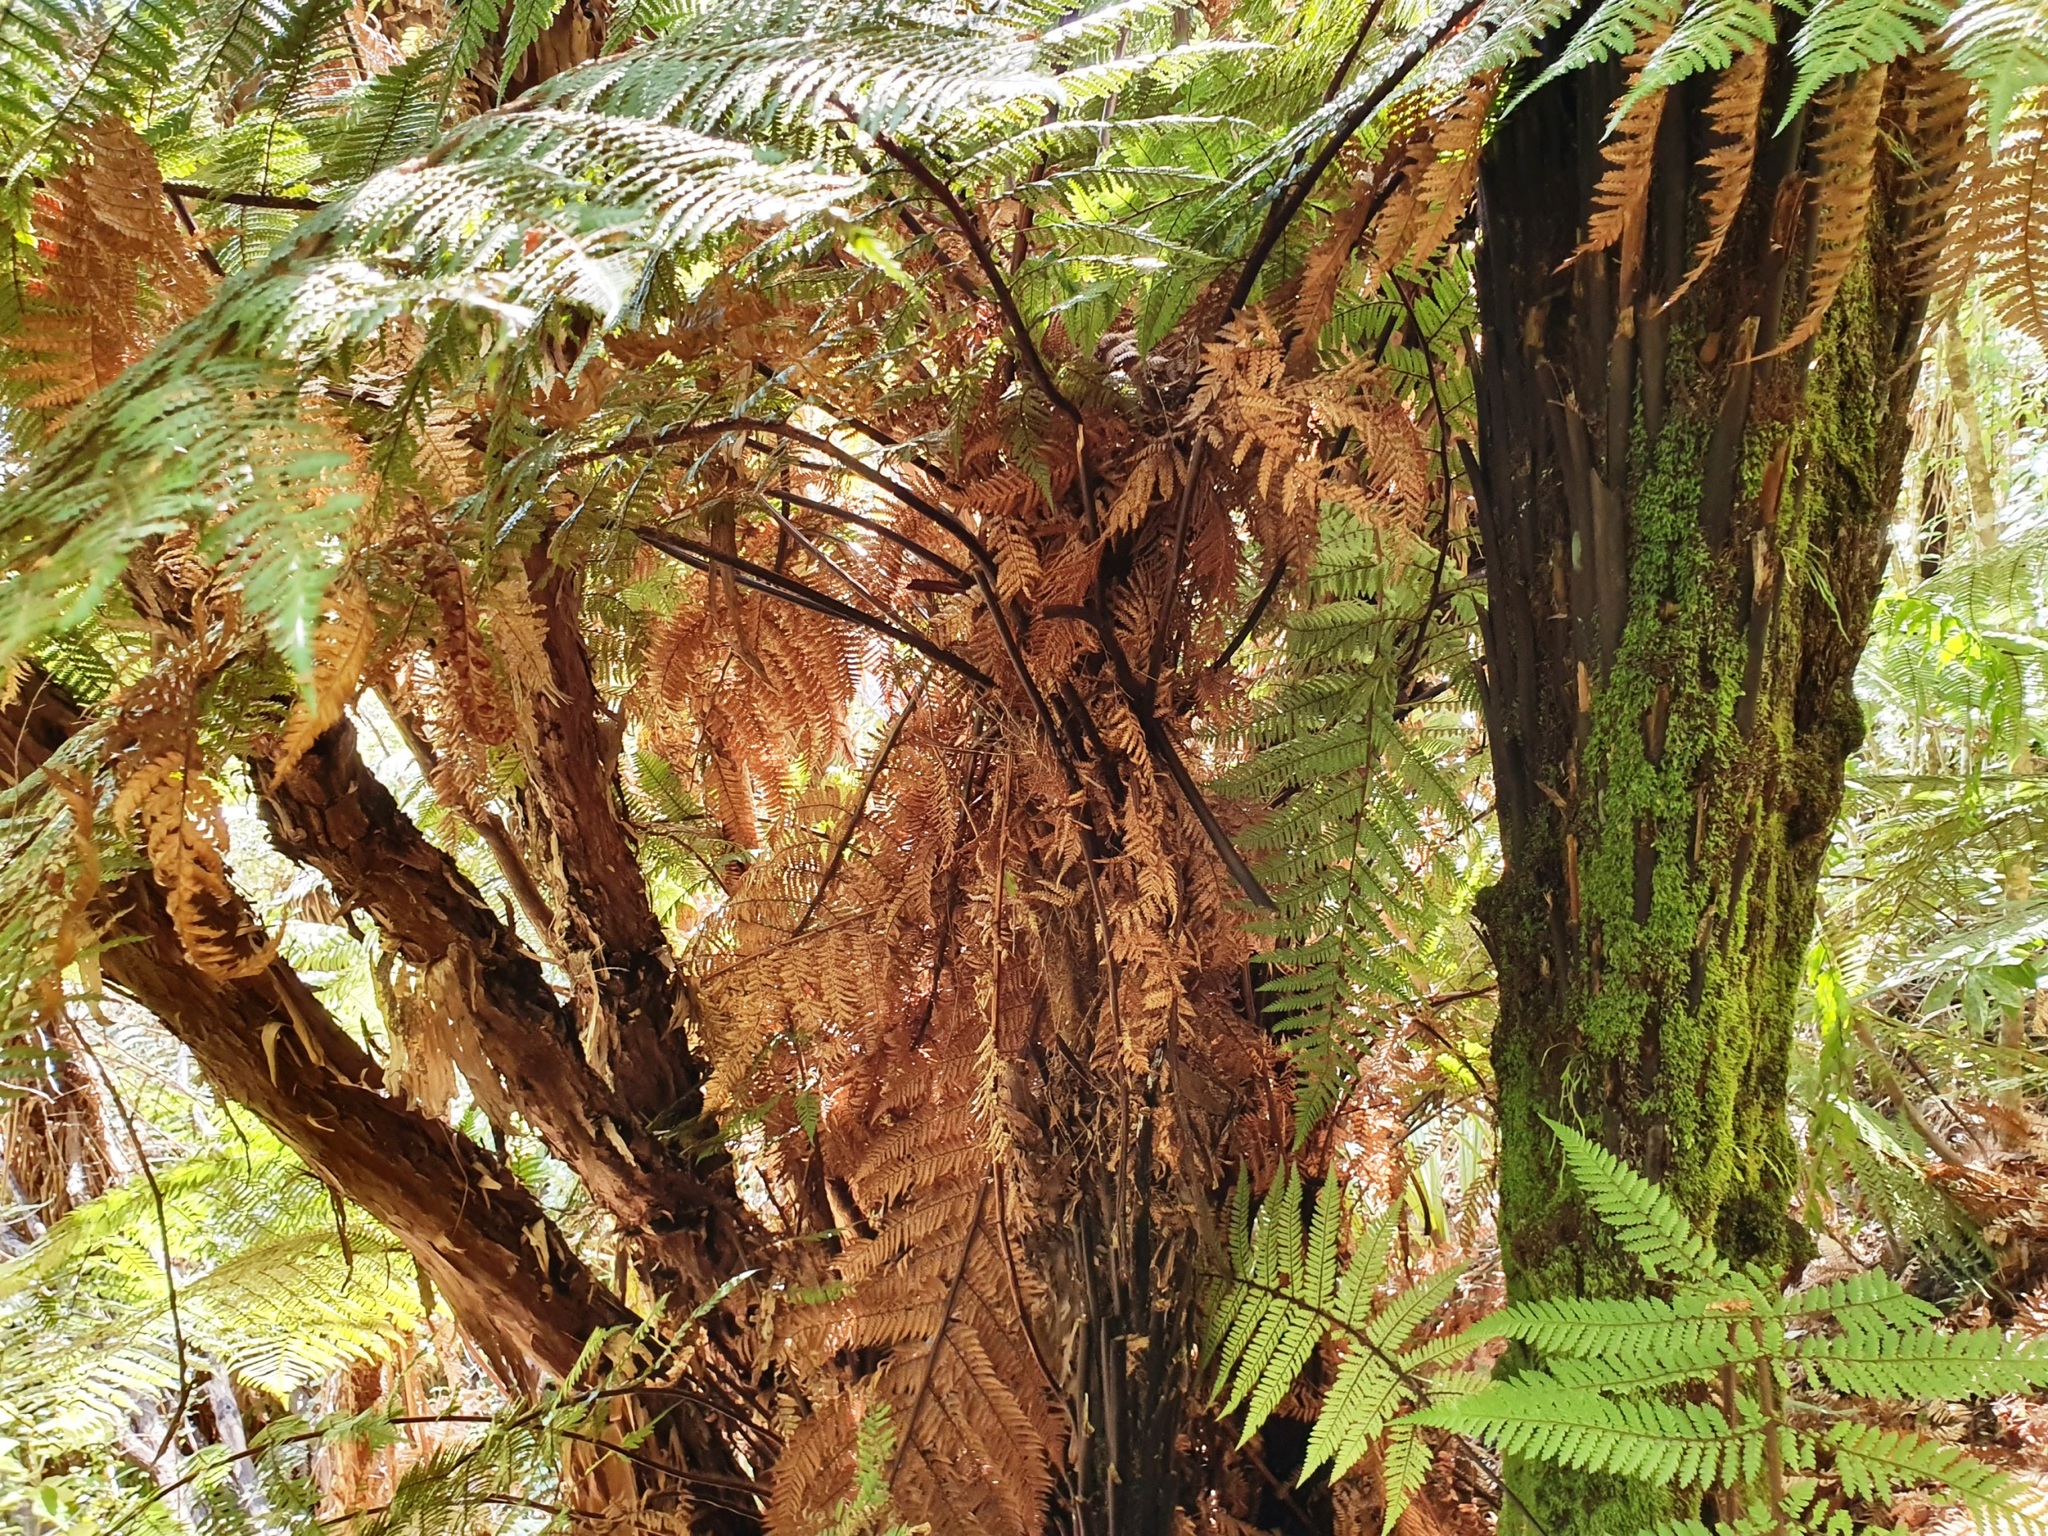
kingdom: Plantae
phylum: Tracheophyta
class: Polypodiopsida
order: Cyatheales
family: Dicksoniaceae
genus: Dicksonia
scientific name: Dicksonia squarrosa
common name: Hard treefern
